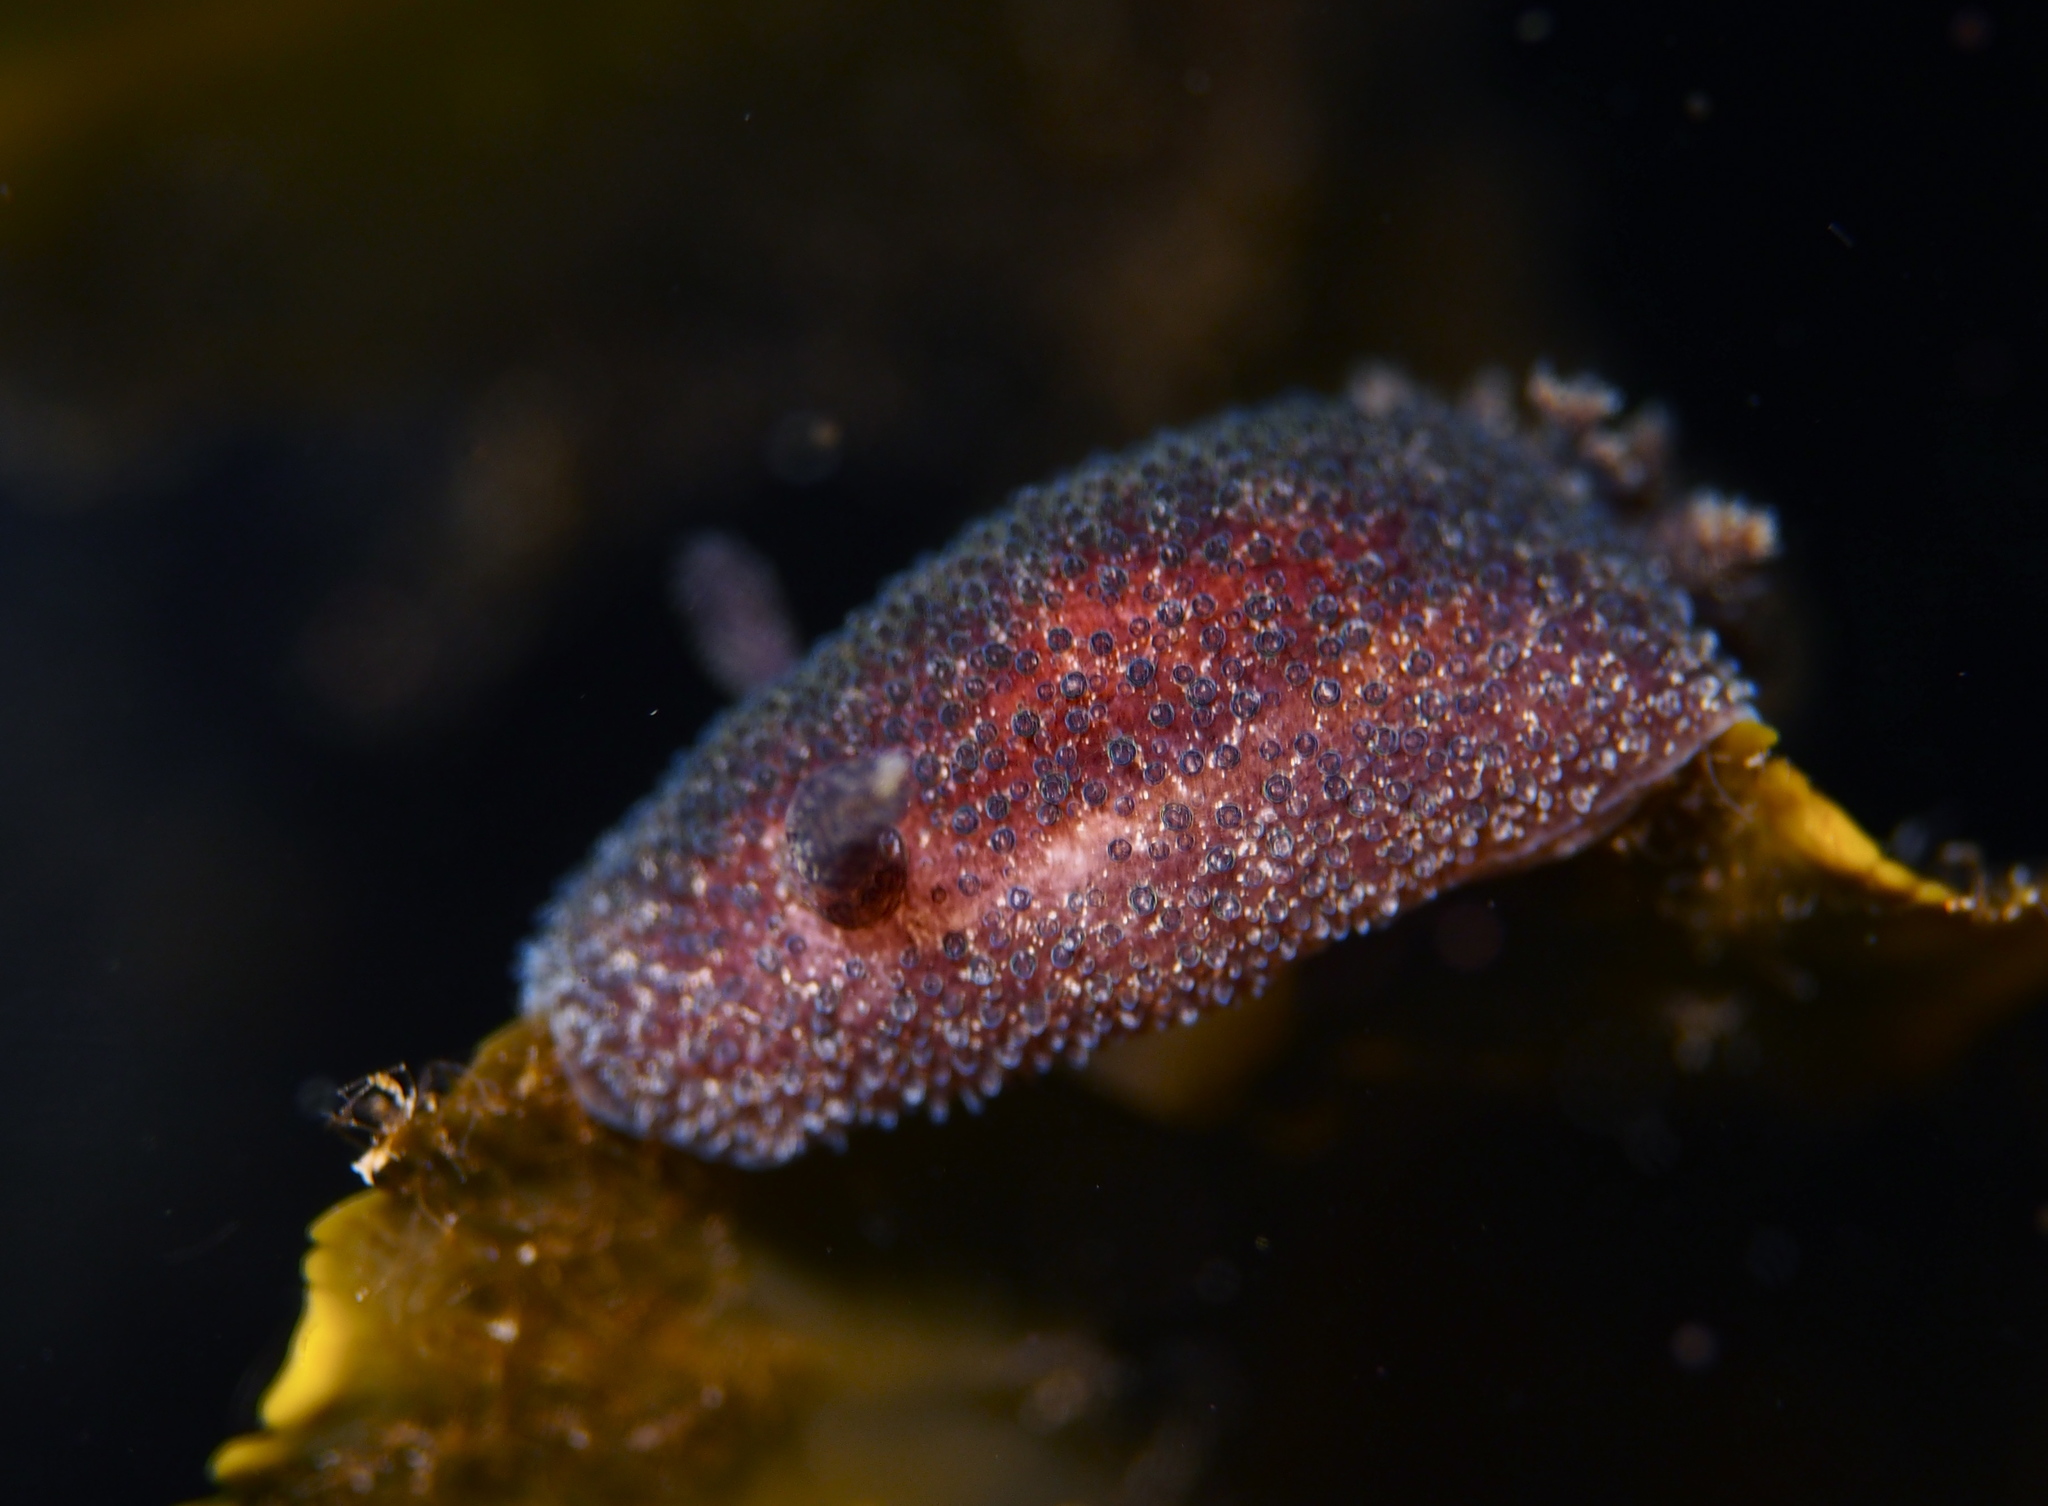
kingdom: Animalia
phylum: Mollusca
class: Gastropoda
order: Nudibranchia
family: Onchidorididae
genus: Acanthodoris
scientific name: Acanthodoris pilosa
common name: Hairy spiny doris
